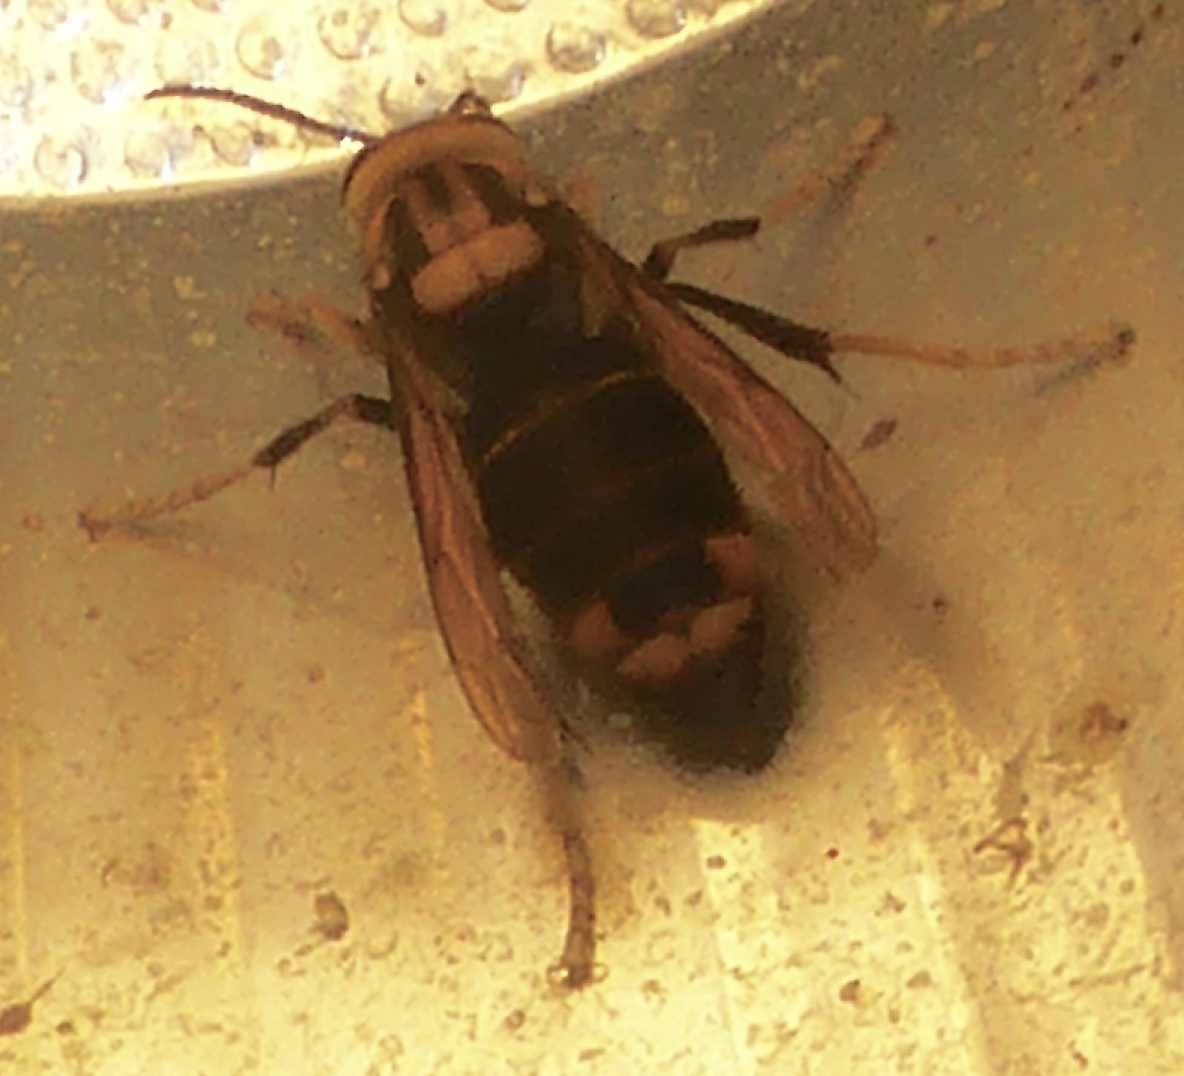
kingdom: Animalia
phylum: Arthropoda
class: Insecta
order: Hymenoptera
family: Vespidae
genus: Vespa
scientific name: Vespa velutina
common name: Asian hornet
